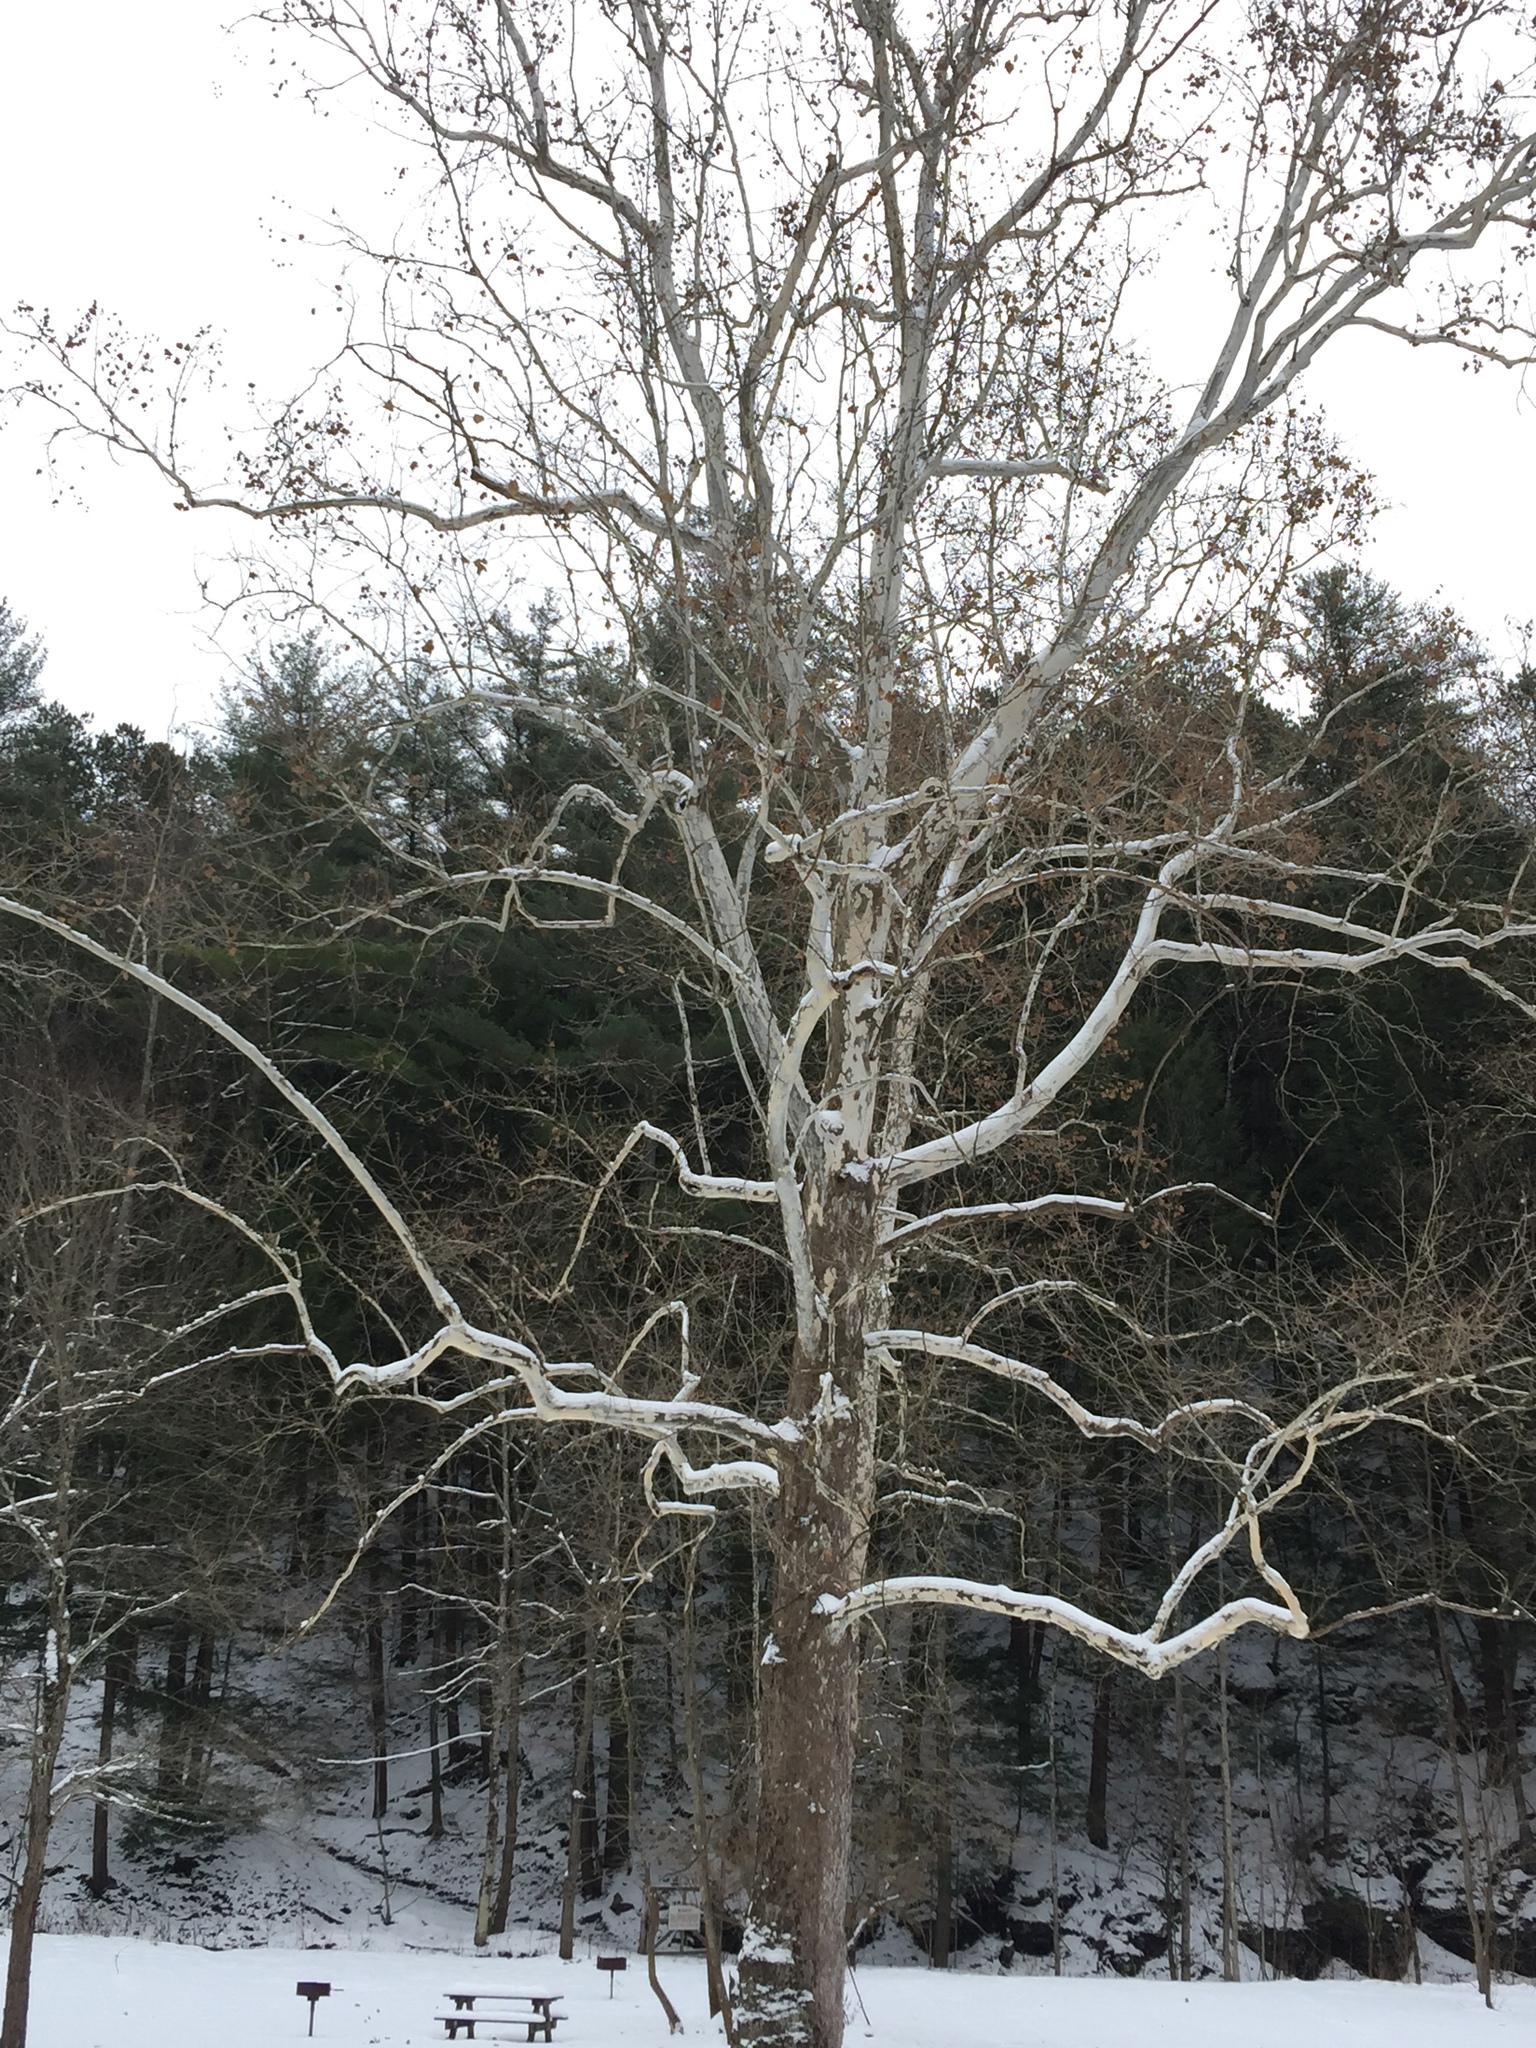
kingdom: Plantae
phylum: Tracheophyta
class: Magnoliopsida
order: Proteales
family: Platanaceae
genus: Platanus
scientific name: Platanus occidentalis
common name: American sycamore
